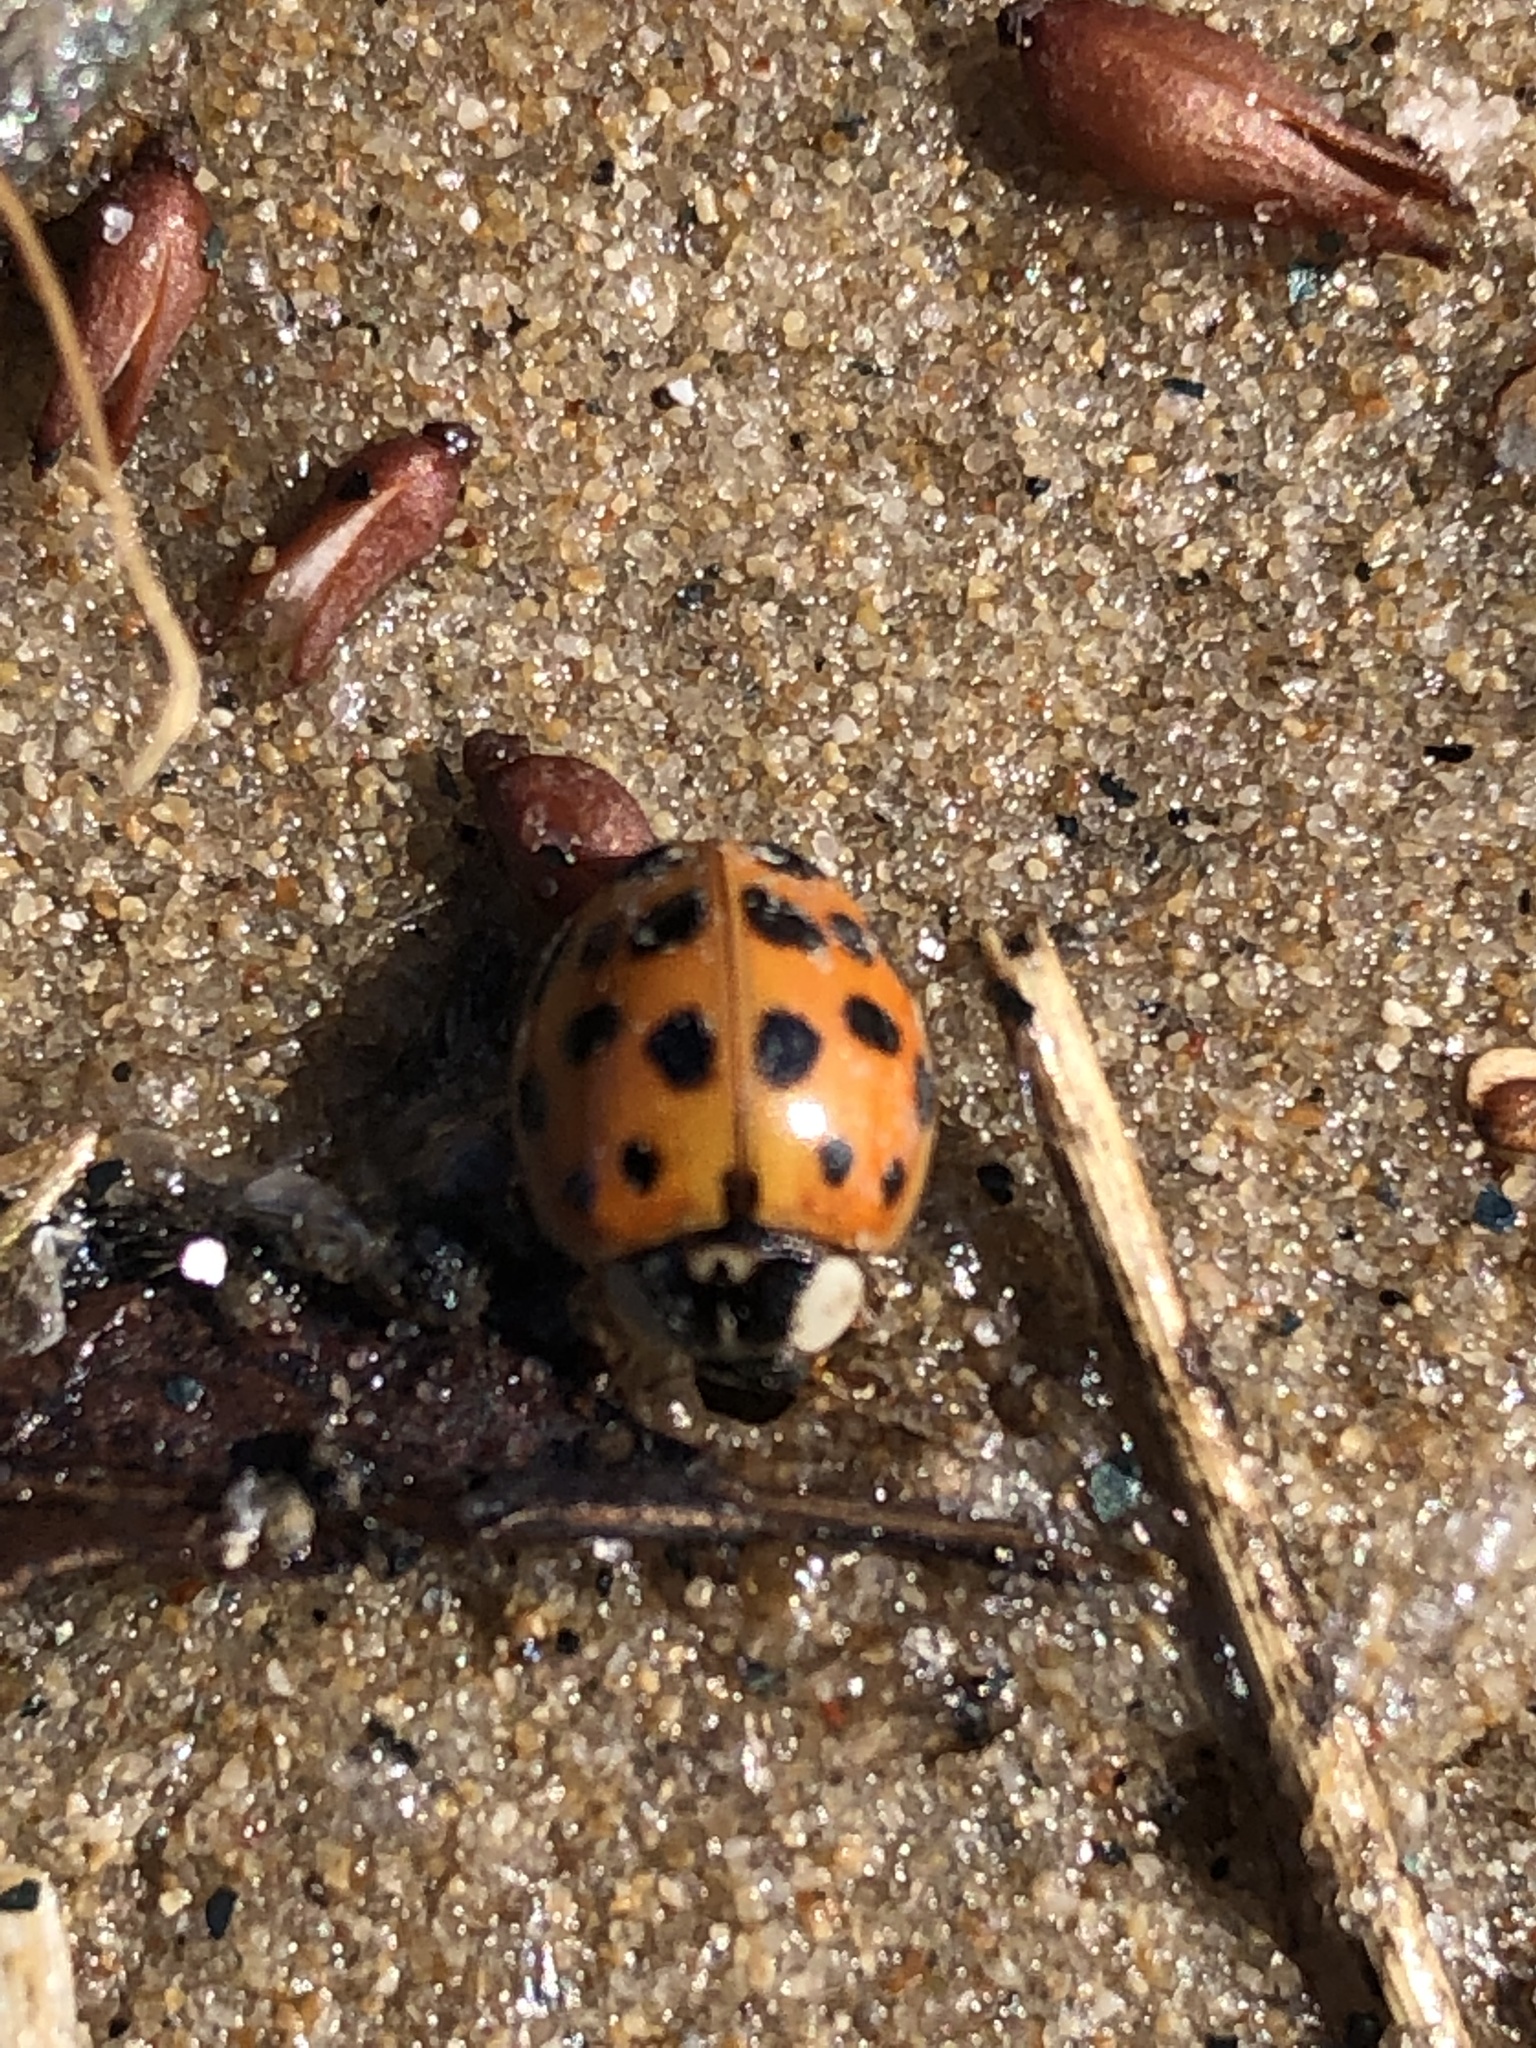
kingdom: Animalia
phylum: Arthropoda
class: Insecta
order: Coleoptera
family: Coccinellidae
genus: Harmonia
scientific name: Harmonia axyridis
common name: Harlequin ladybird
